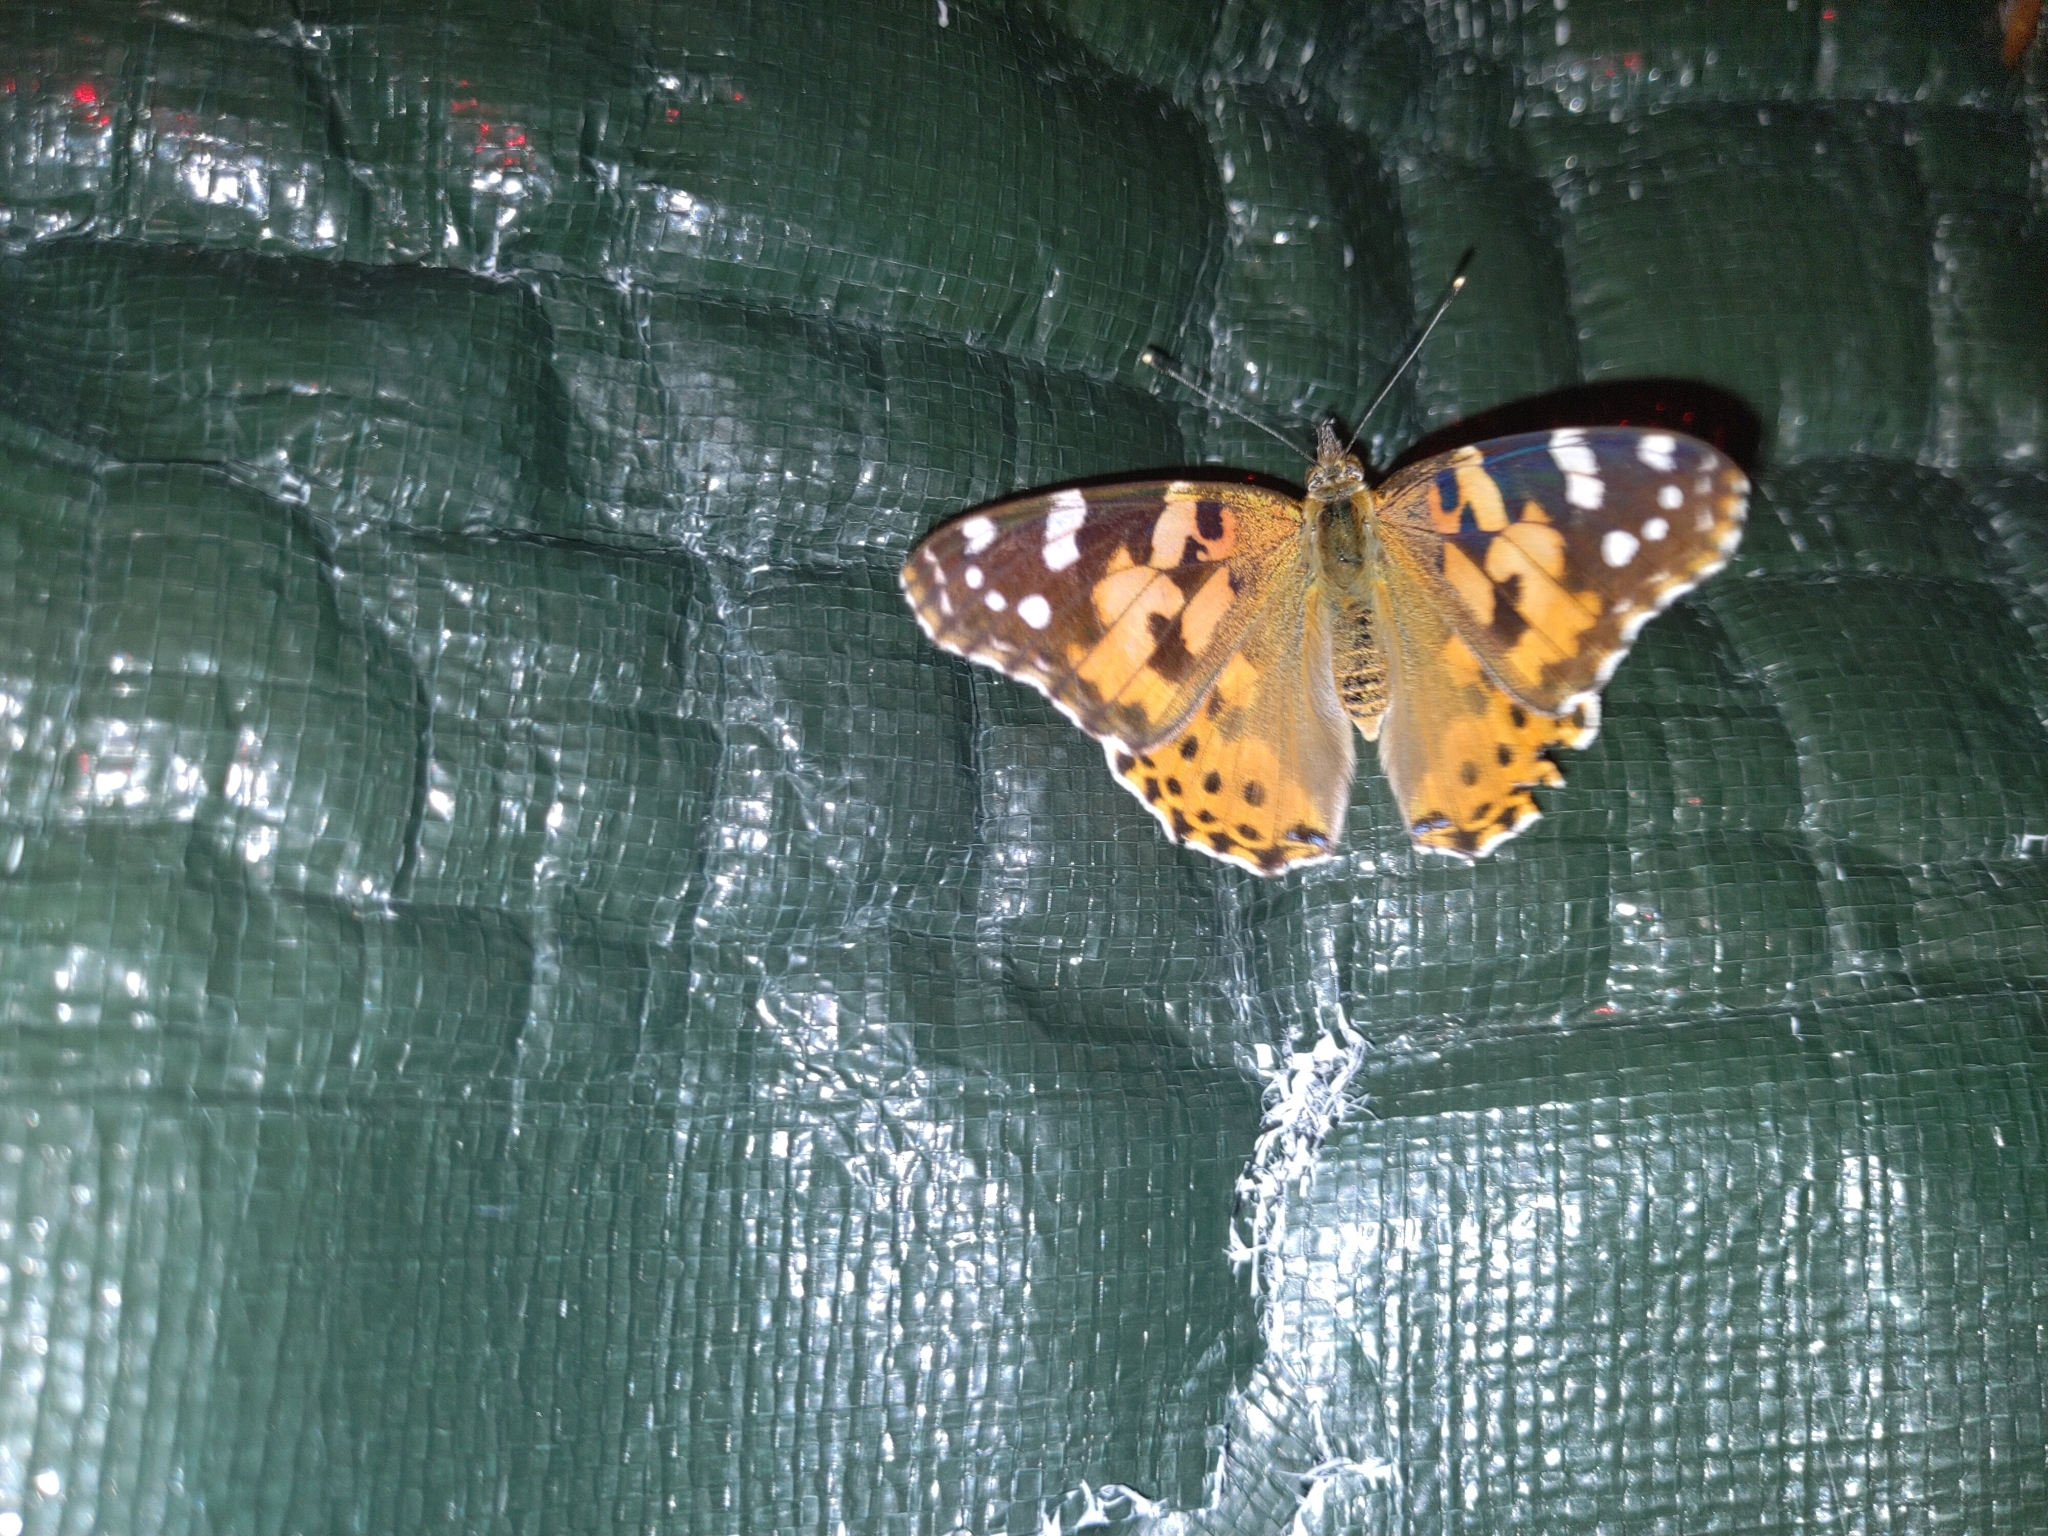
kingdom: Animalia
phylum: Arthropoda
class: Insecta
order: Lepidoptera
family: Nymphalidae
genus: Vanessa
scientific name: Vanessa cardui
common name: Painted lady
